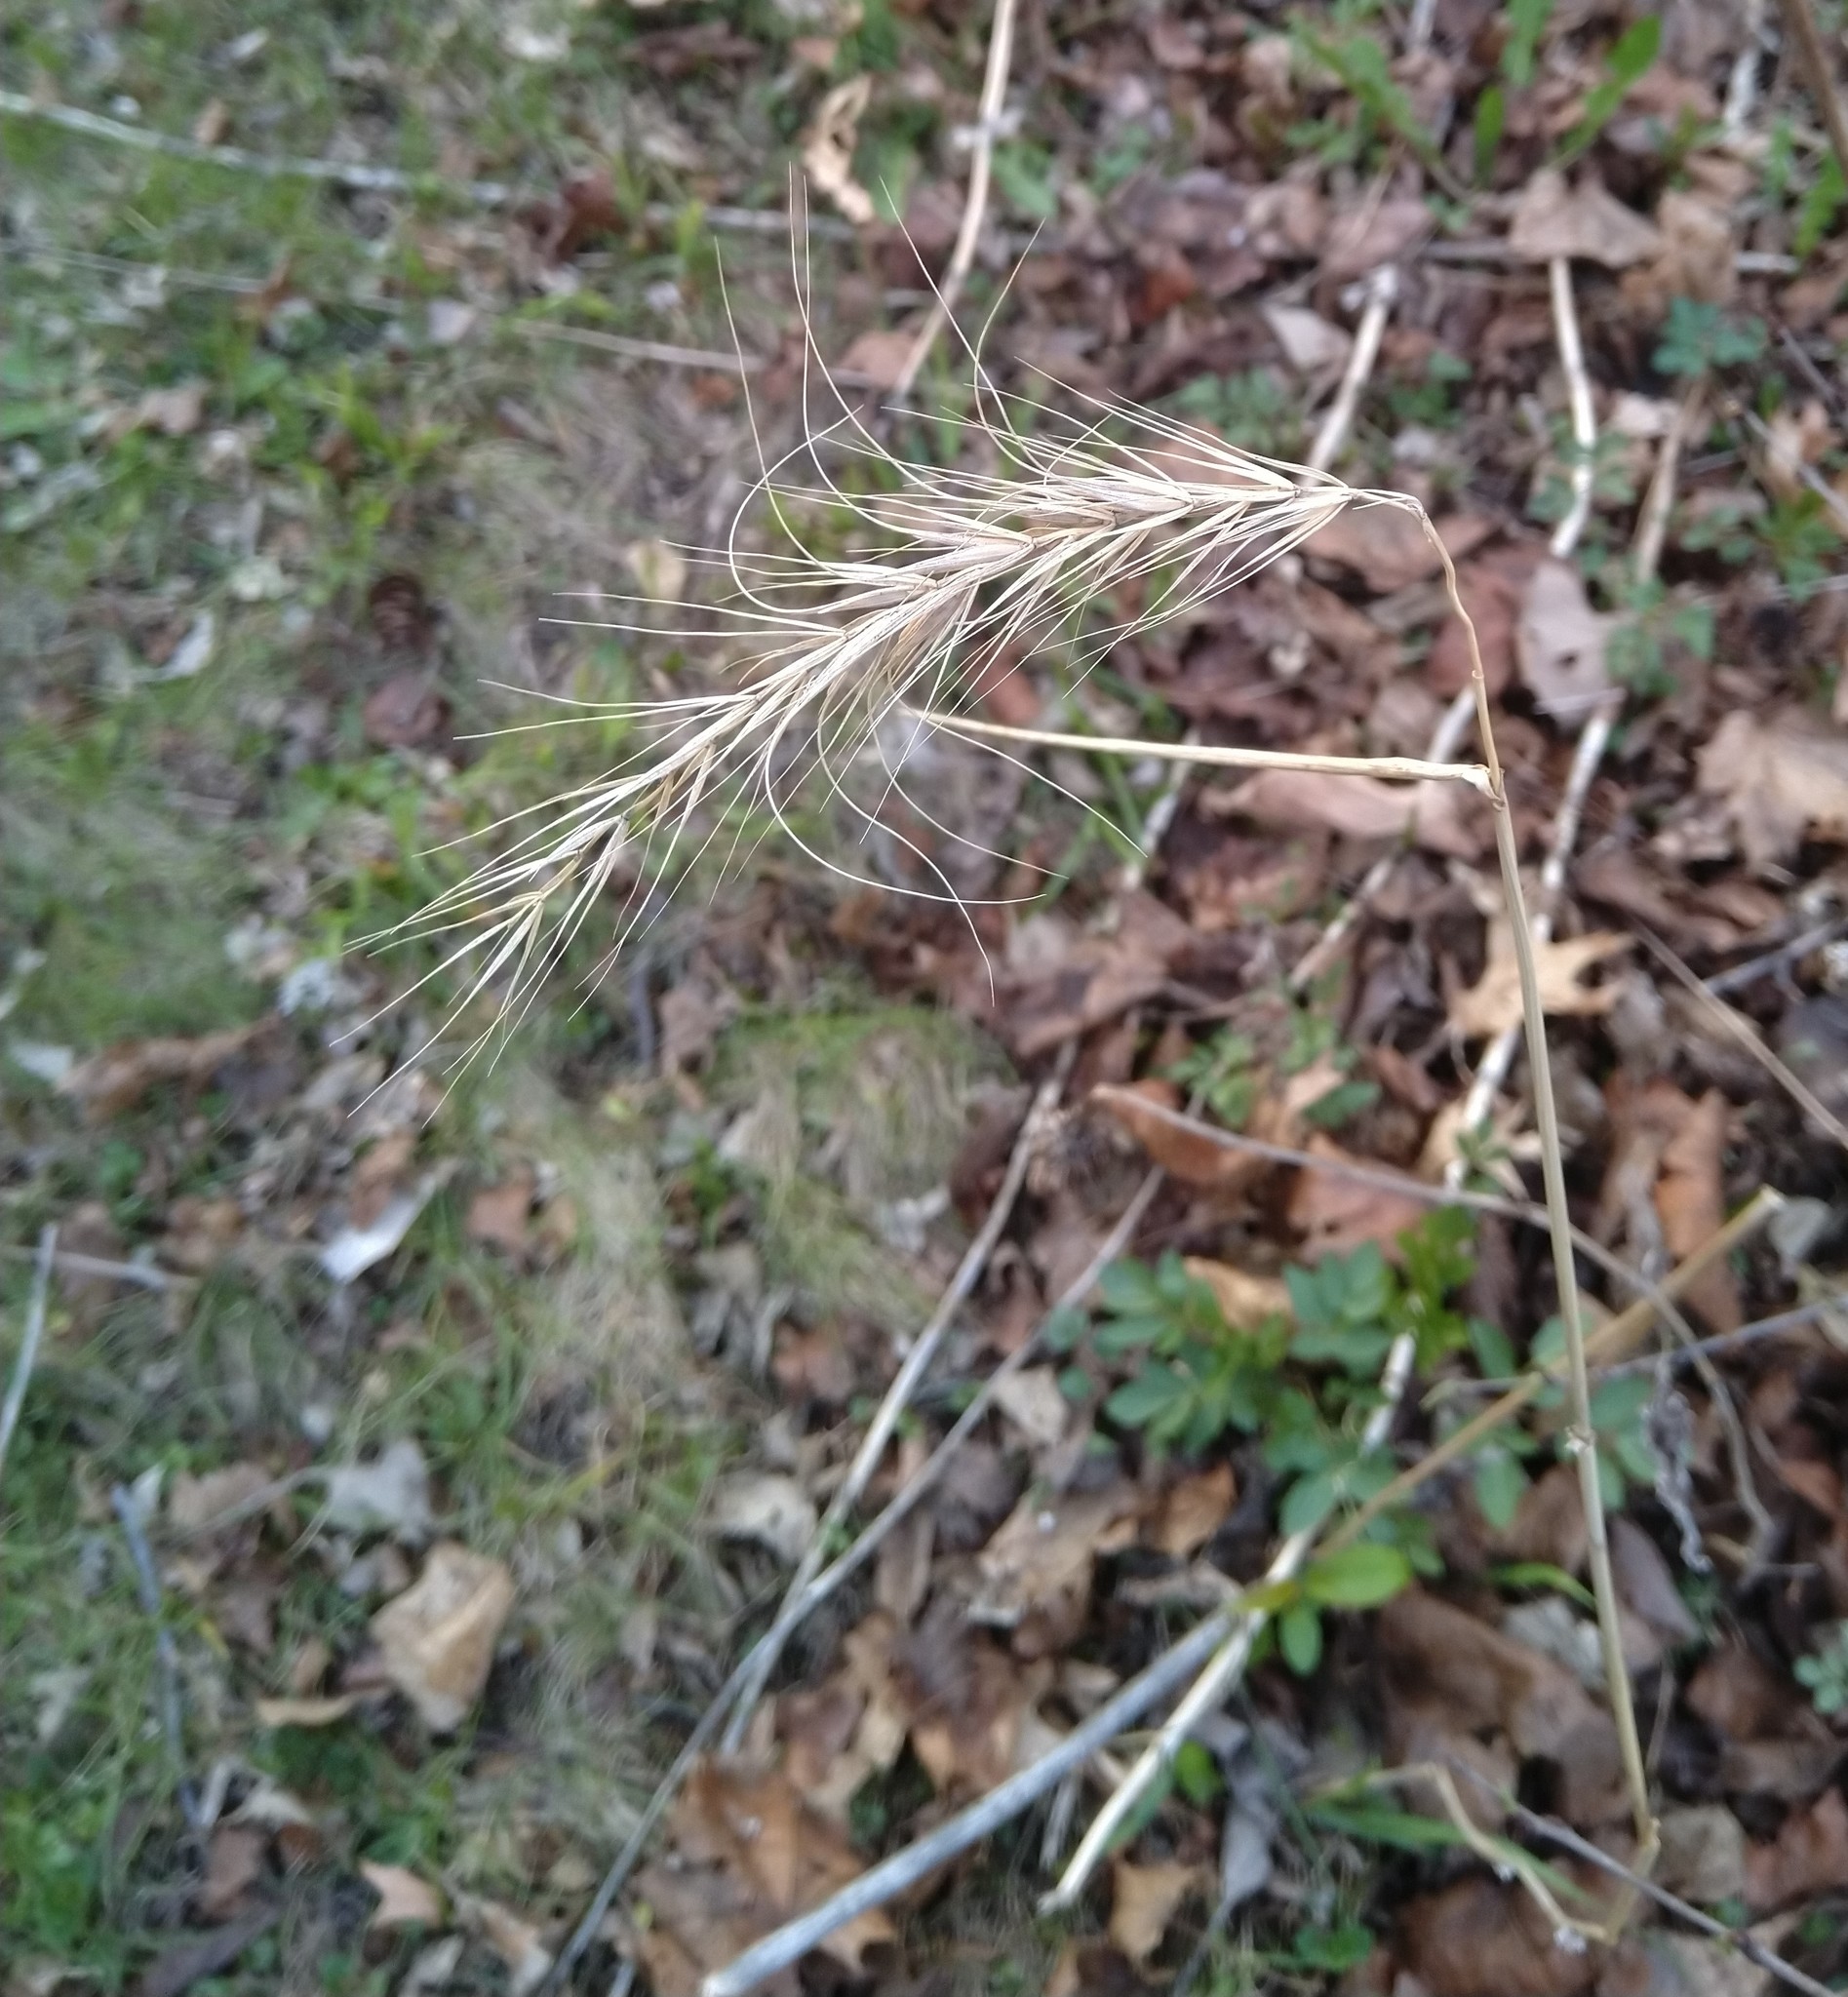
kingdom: Plantae
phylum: Tracheophyta
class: Liliopsida
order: Poales
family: Poaceae
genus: Elymus
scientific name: Elymus canadensis
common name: Canada wild rye
